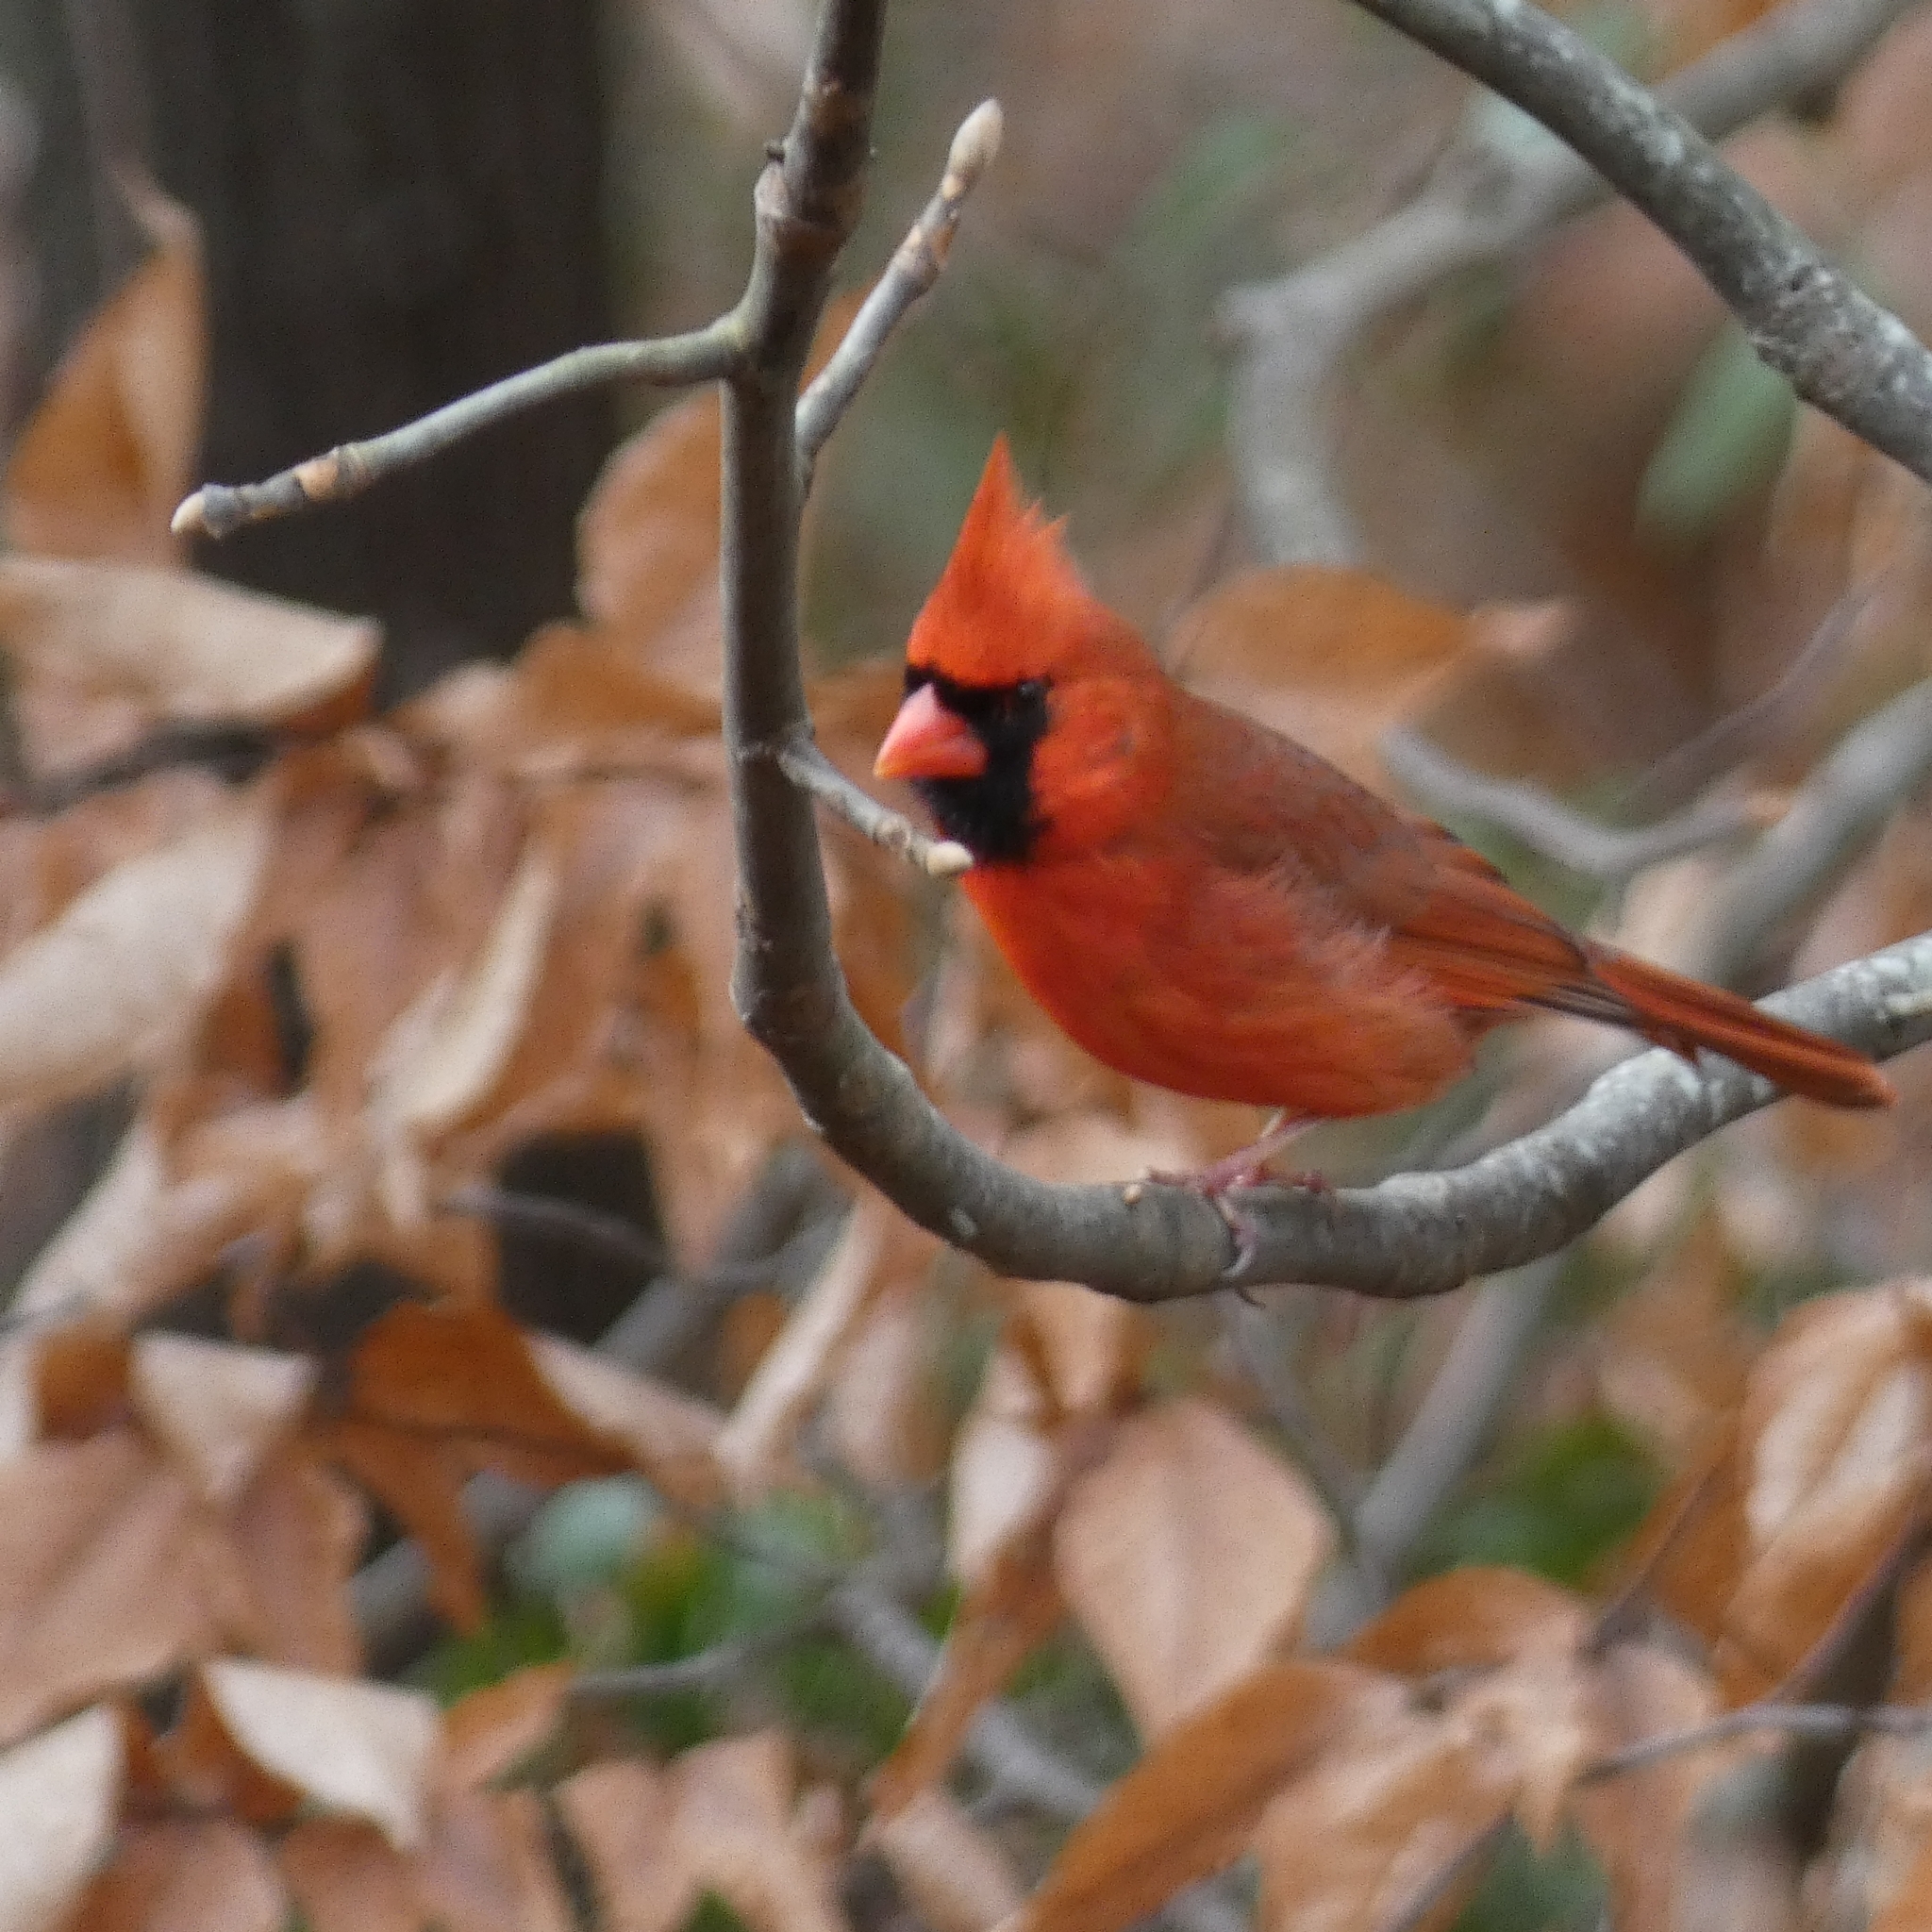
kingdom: Animalia
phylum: Chordata
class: Aves
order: Passeriformes
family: Cardinalidae
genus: Cardinalis
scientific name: Cardinalis cardinalis
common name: Northern cardinal
